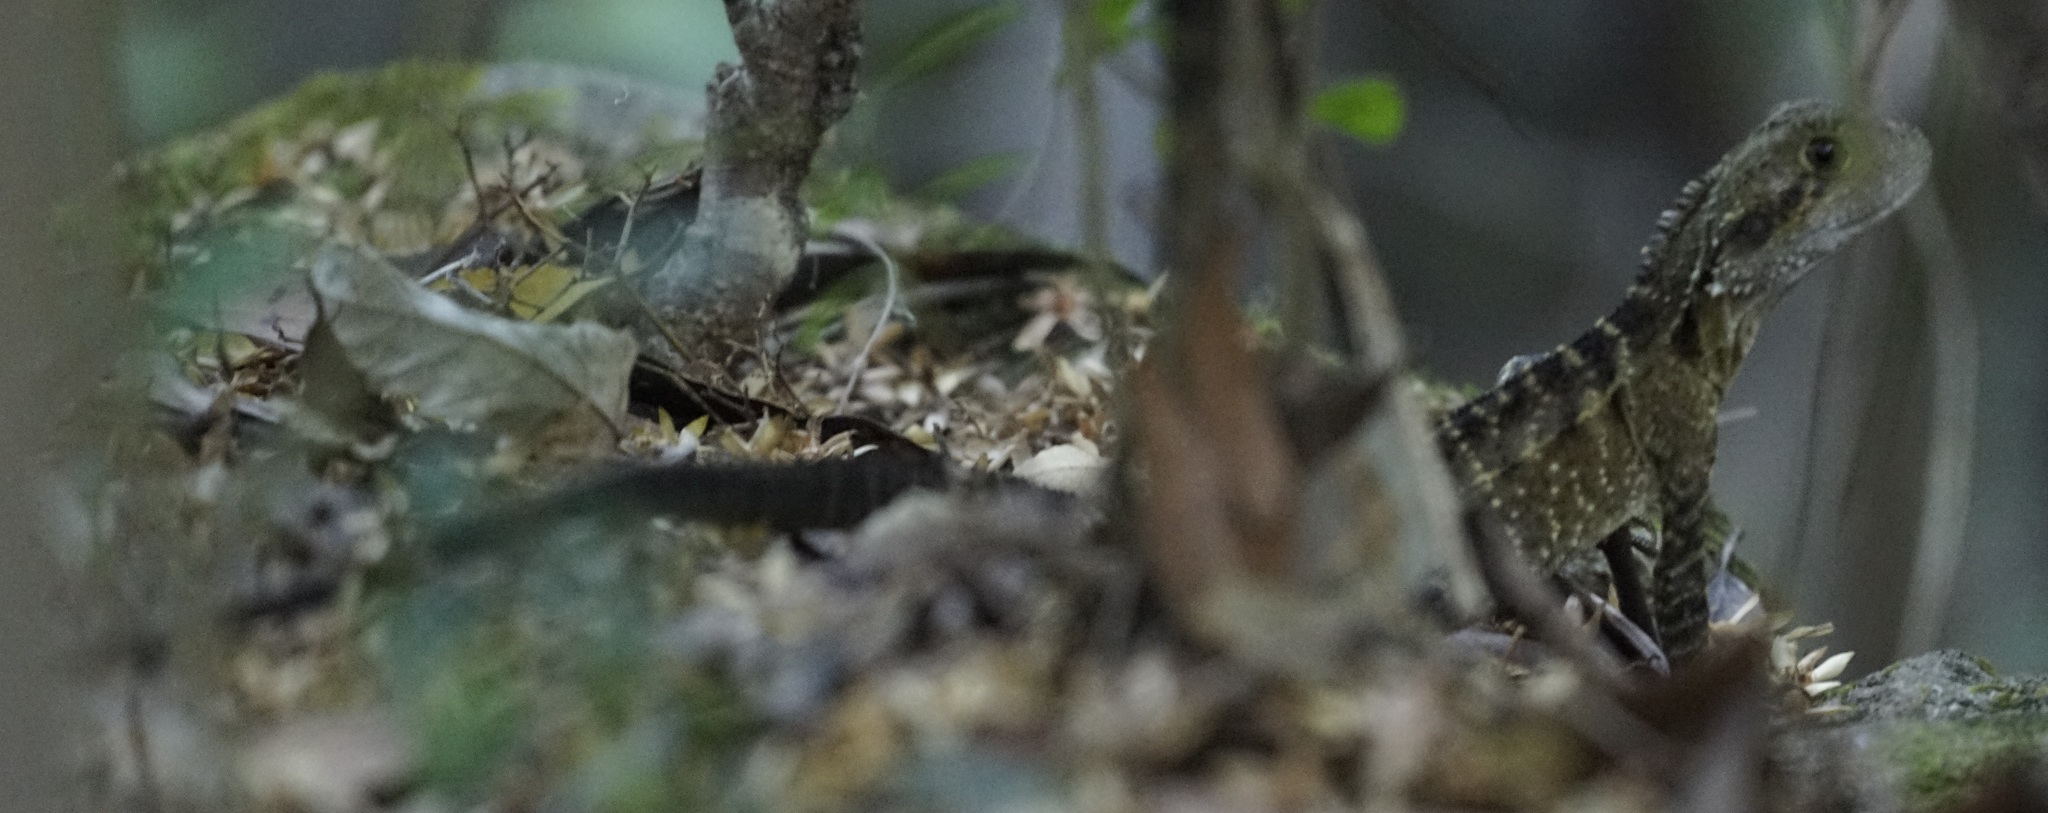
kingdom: Animalia
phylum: Chordata
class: Squamata
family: Agamidae
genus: Intellagama
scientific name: Intellagama lesueurii
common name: Eastern water dragon
